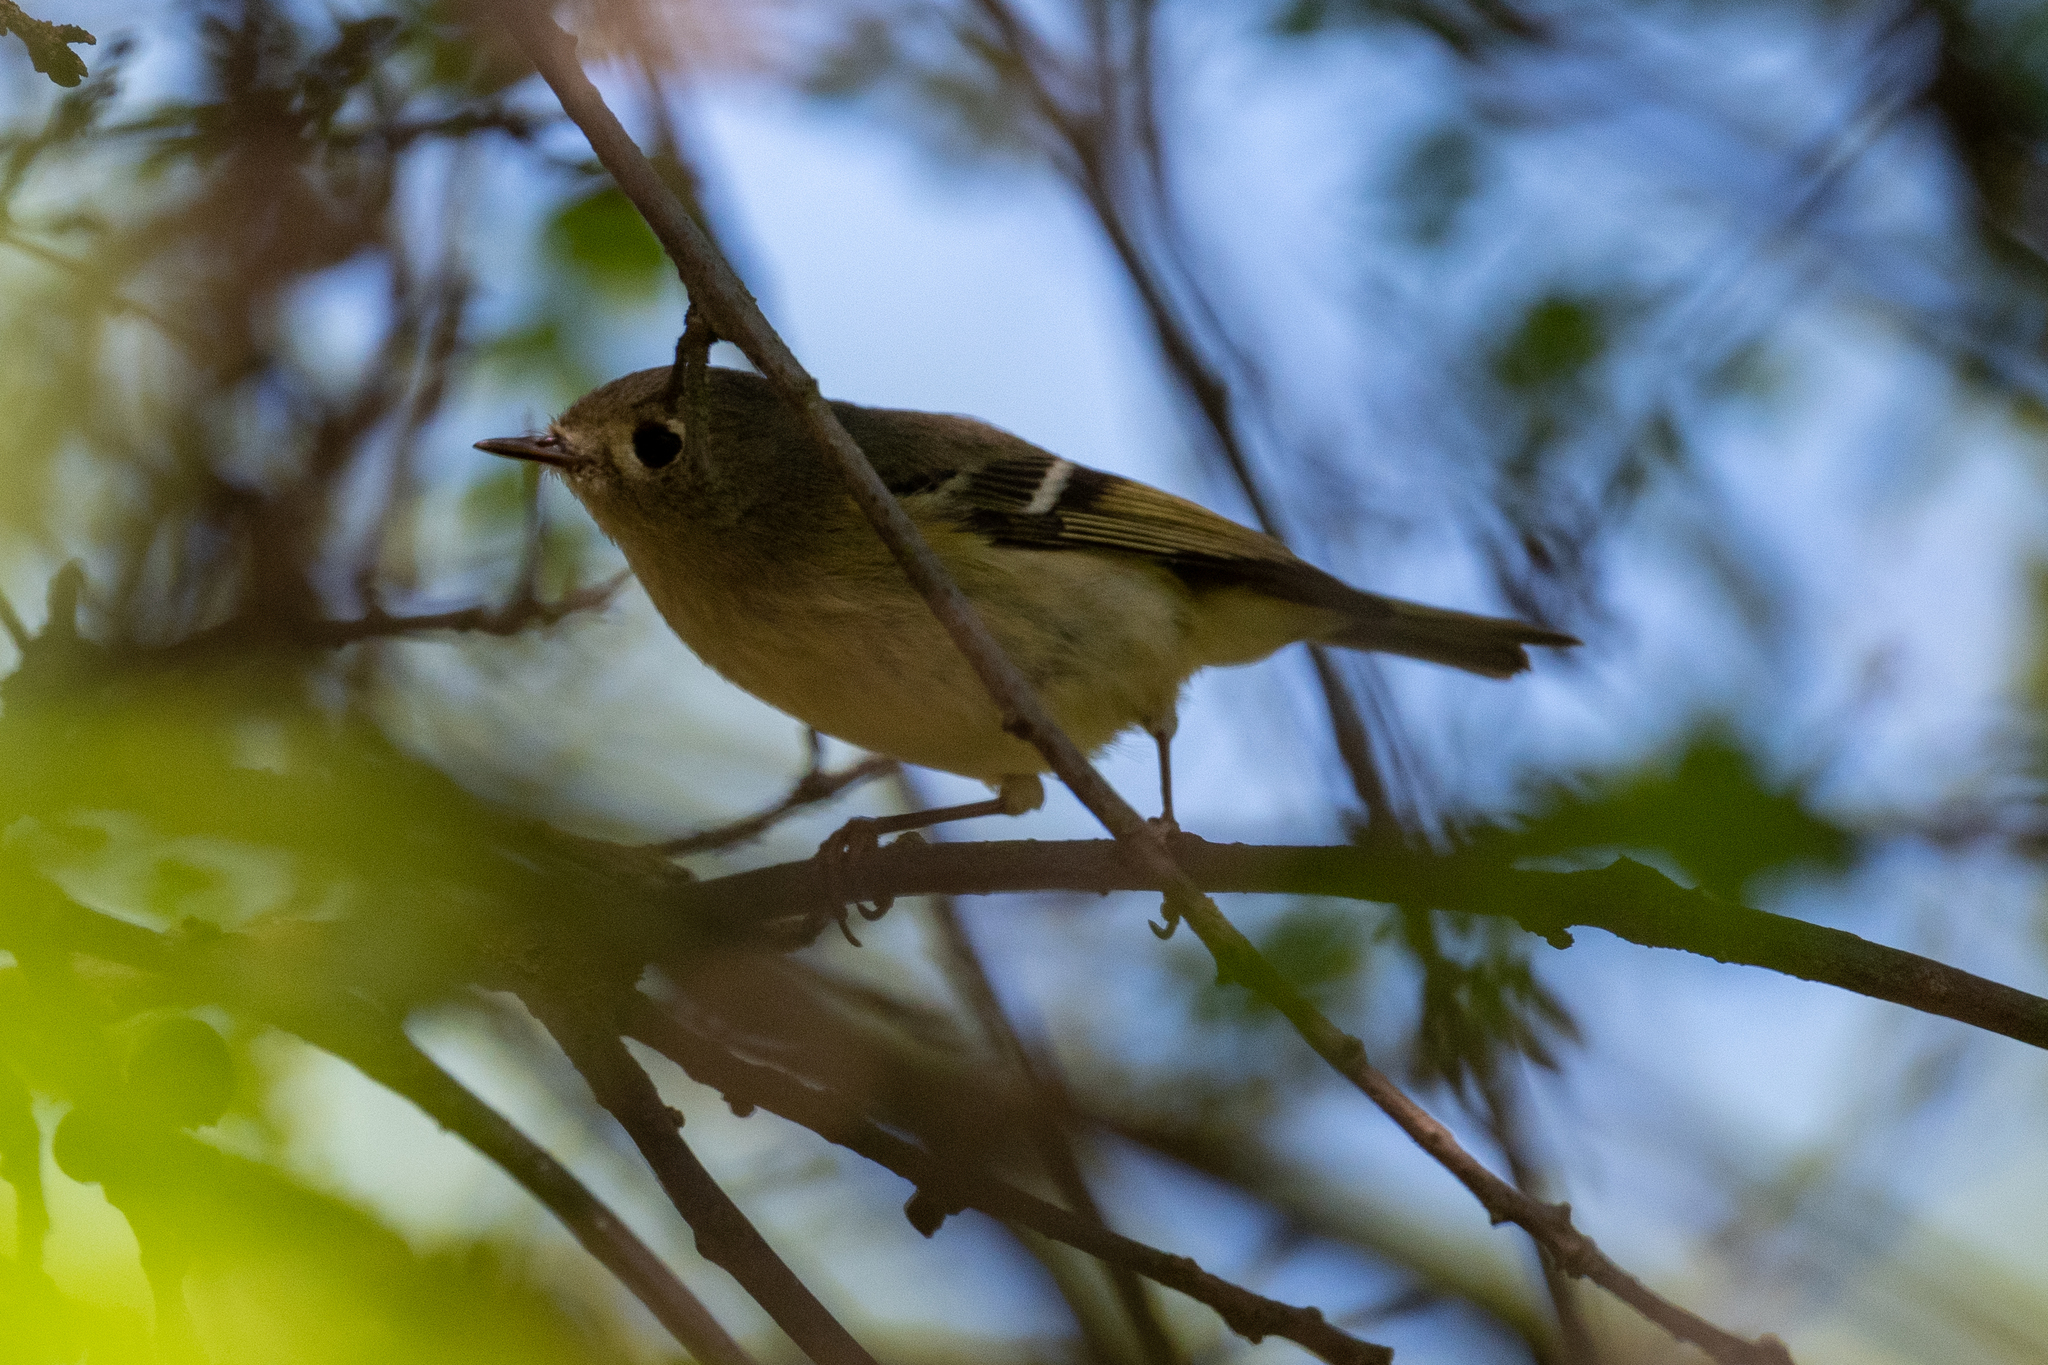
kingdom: Animalia
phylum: Chordata
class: Aves
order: Passeriformes
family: Regulidae
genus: Regulus
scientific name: Regulus calendula
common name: Ruby-crowned kinglet
